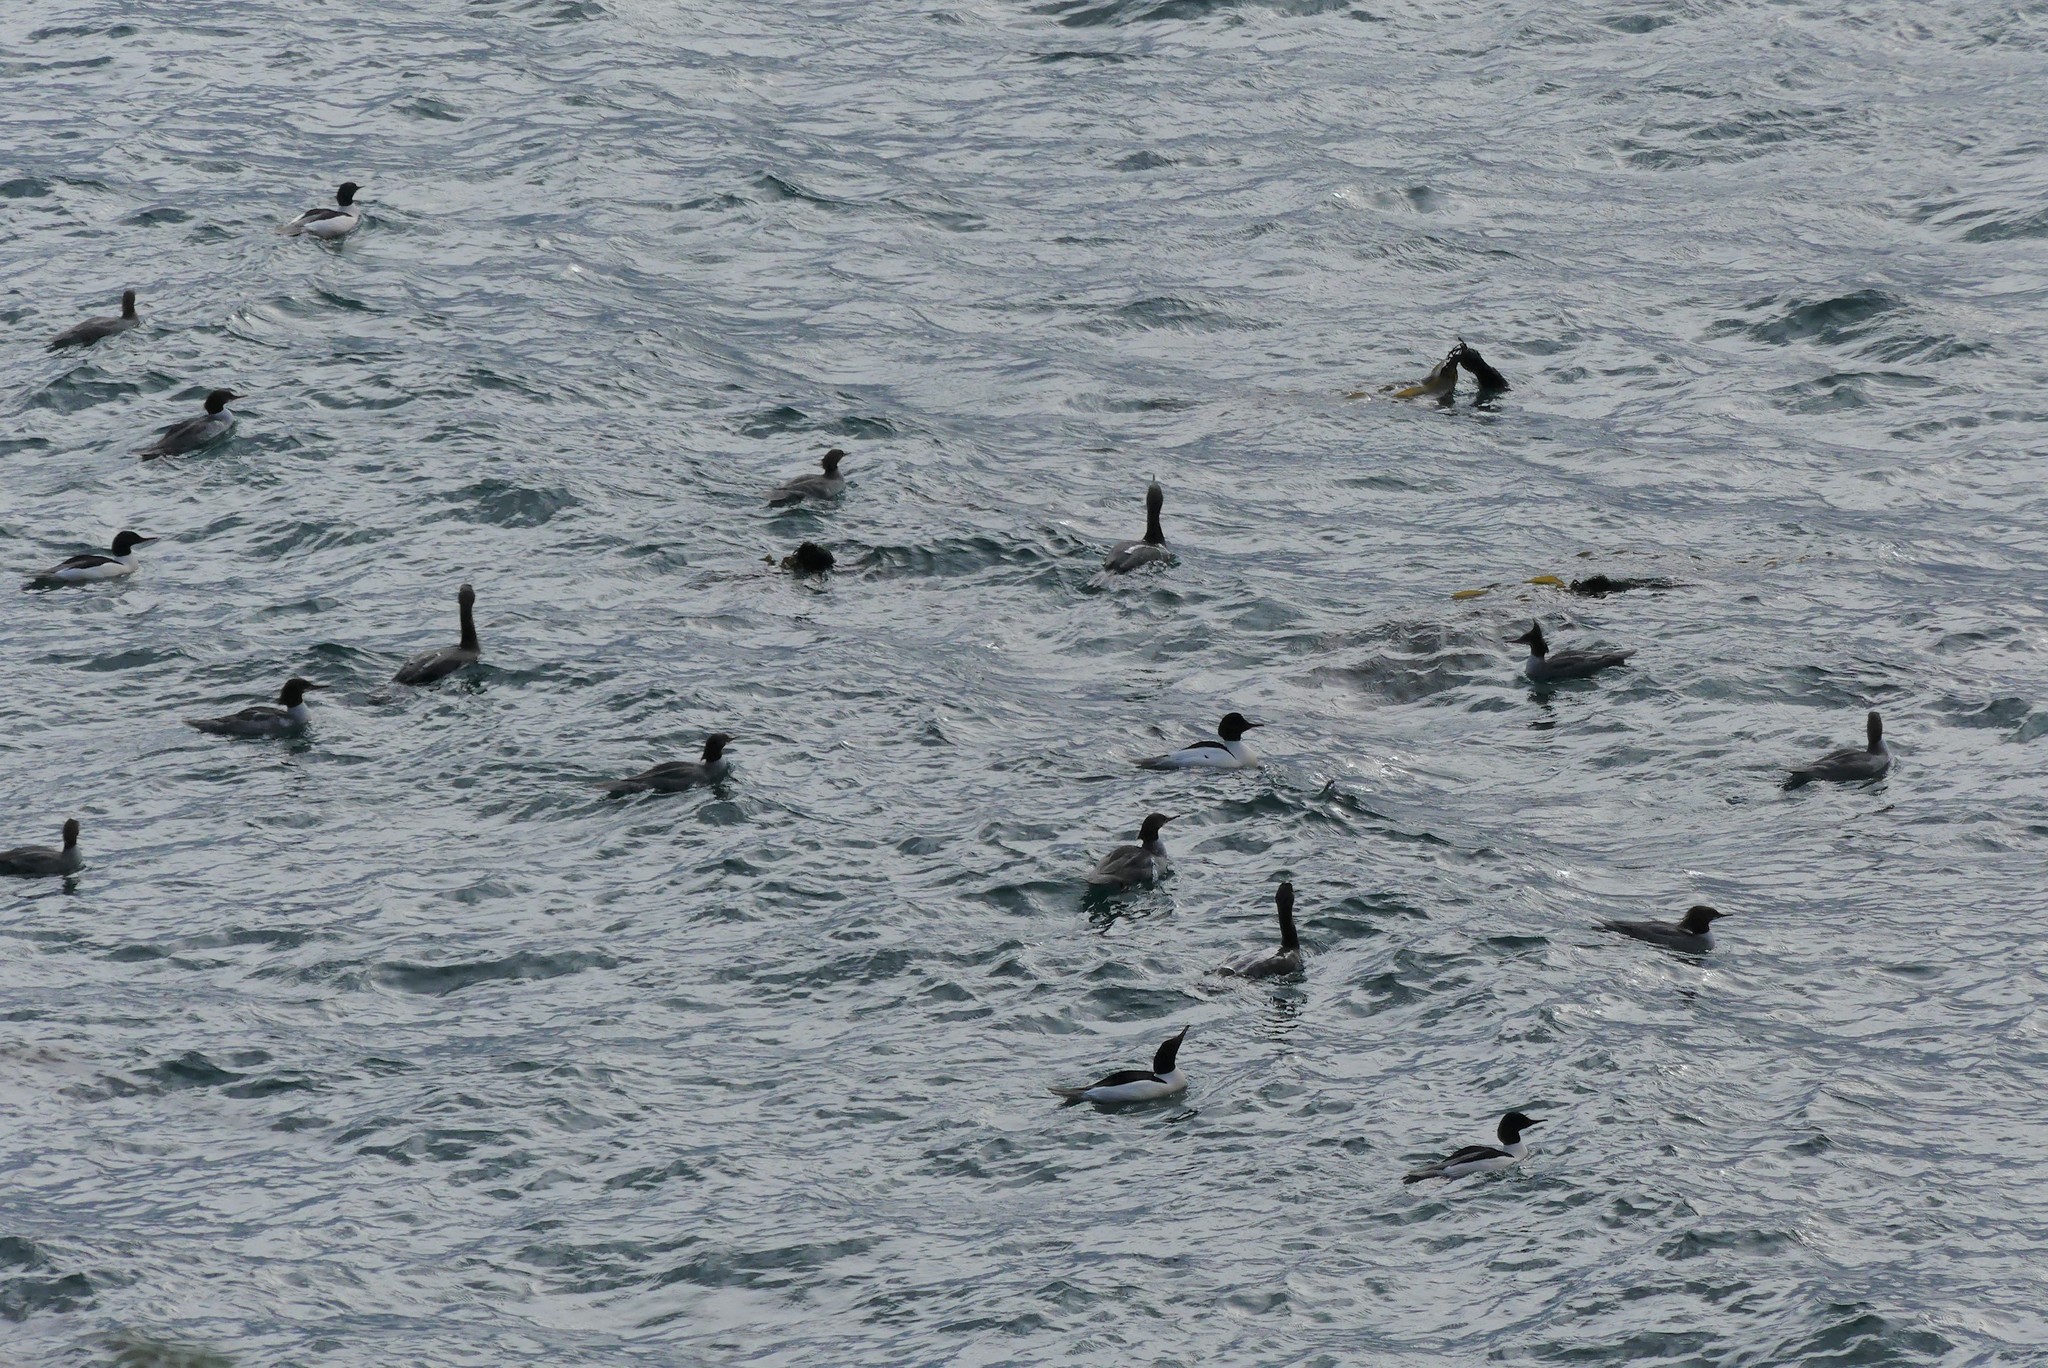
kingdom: Animalia
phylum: Chordata
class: Aves
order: Anseriformes
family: Anatidae
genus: Mergus
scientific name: Mergus merganser
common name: Common merganser
